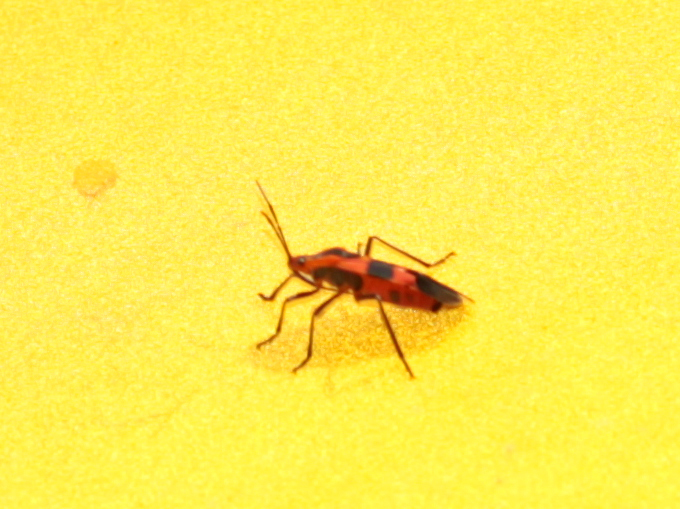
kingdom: Animalia
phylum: Arthropoda
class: Insecta
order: Hemiptera
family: Lygaeidae
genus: Oncopeltus
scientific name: Oncopeltus fasciatus
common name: Large milkweed bug
